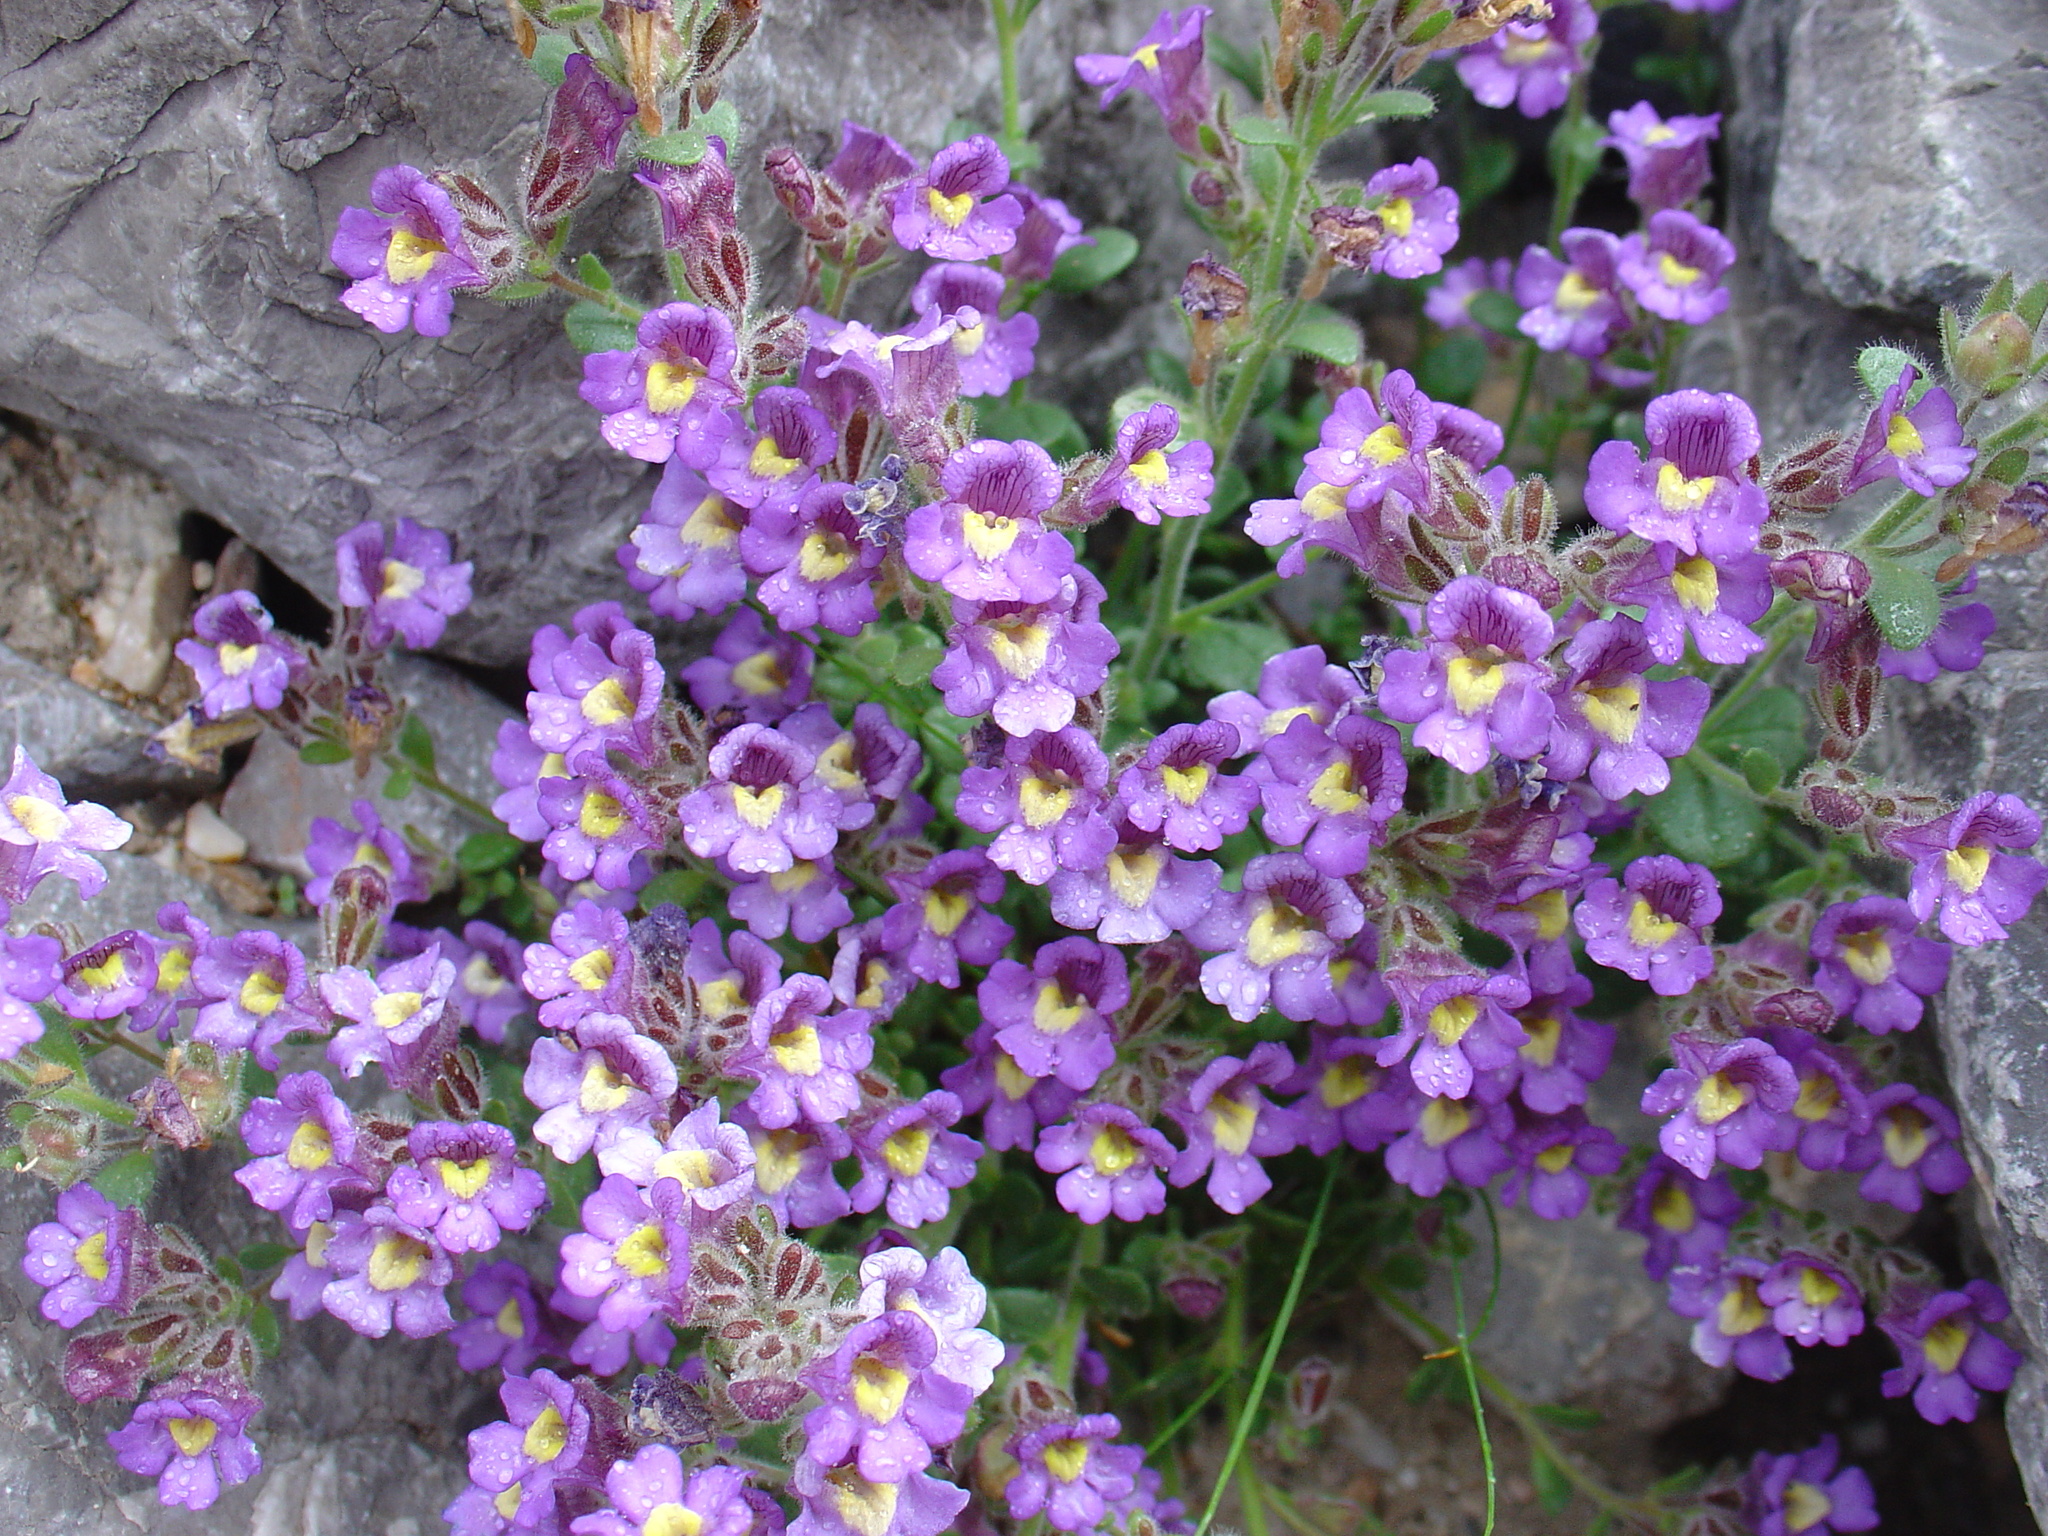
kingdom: Plantae
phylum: Tracheophyta
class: Magnoliopsida
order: Lamiales
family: Plantaginaceae
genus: Chaenorhinum
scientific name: Chaenorhinum origanifolium
